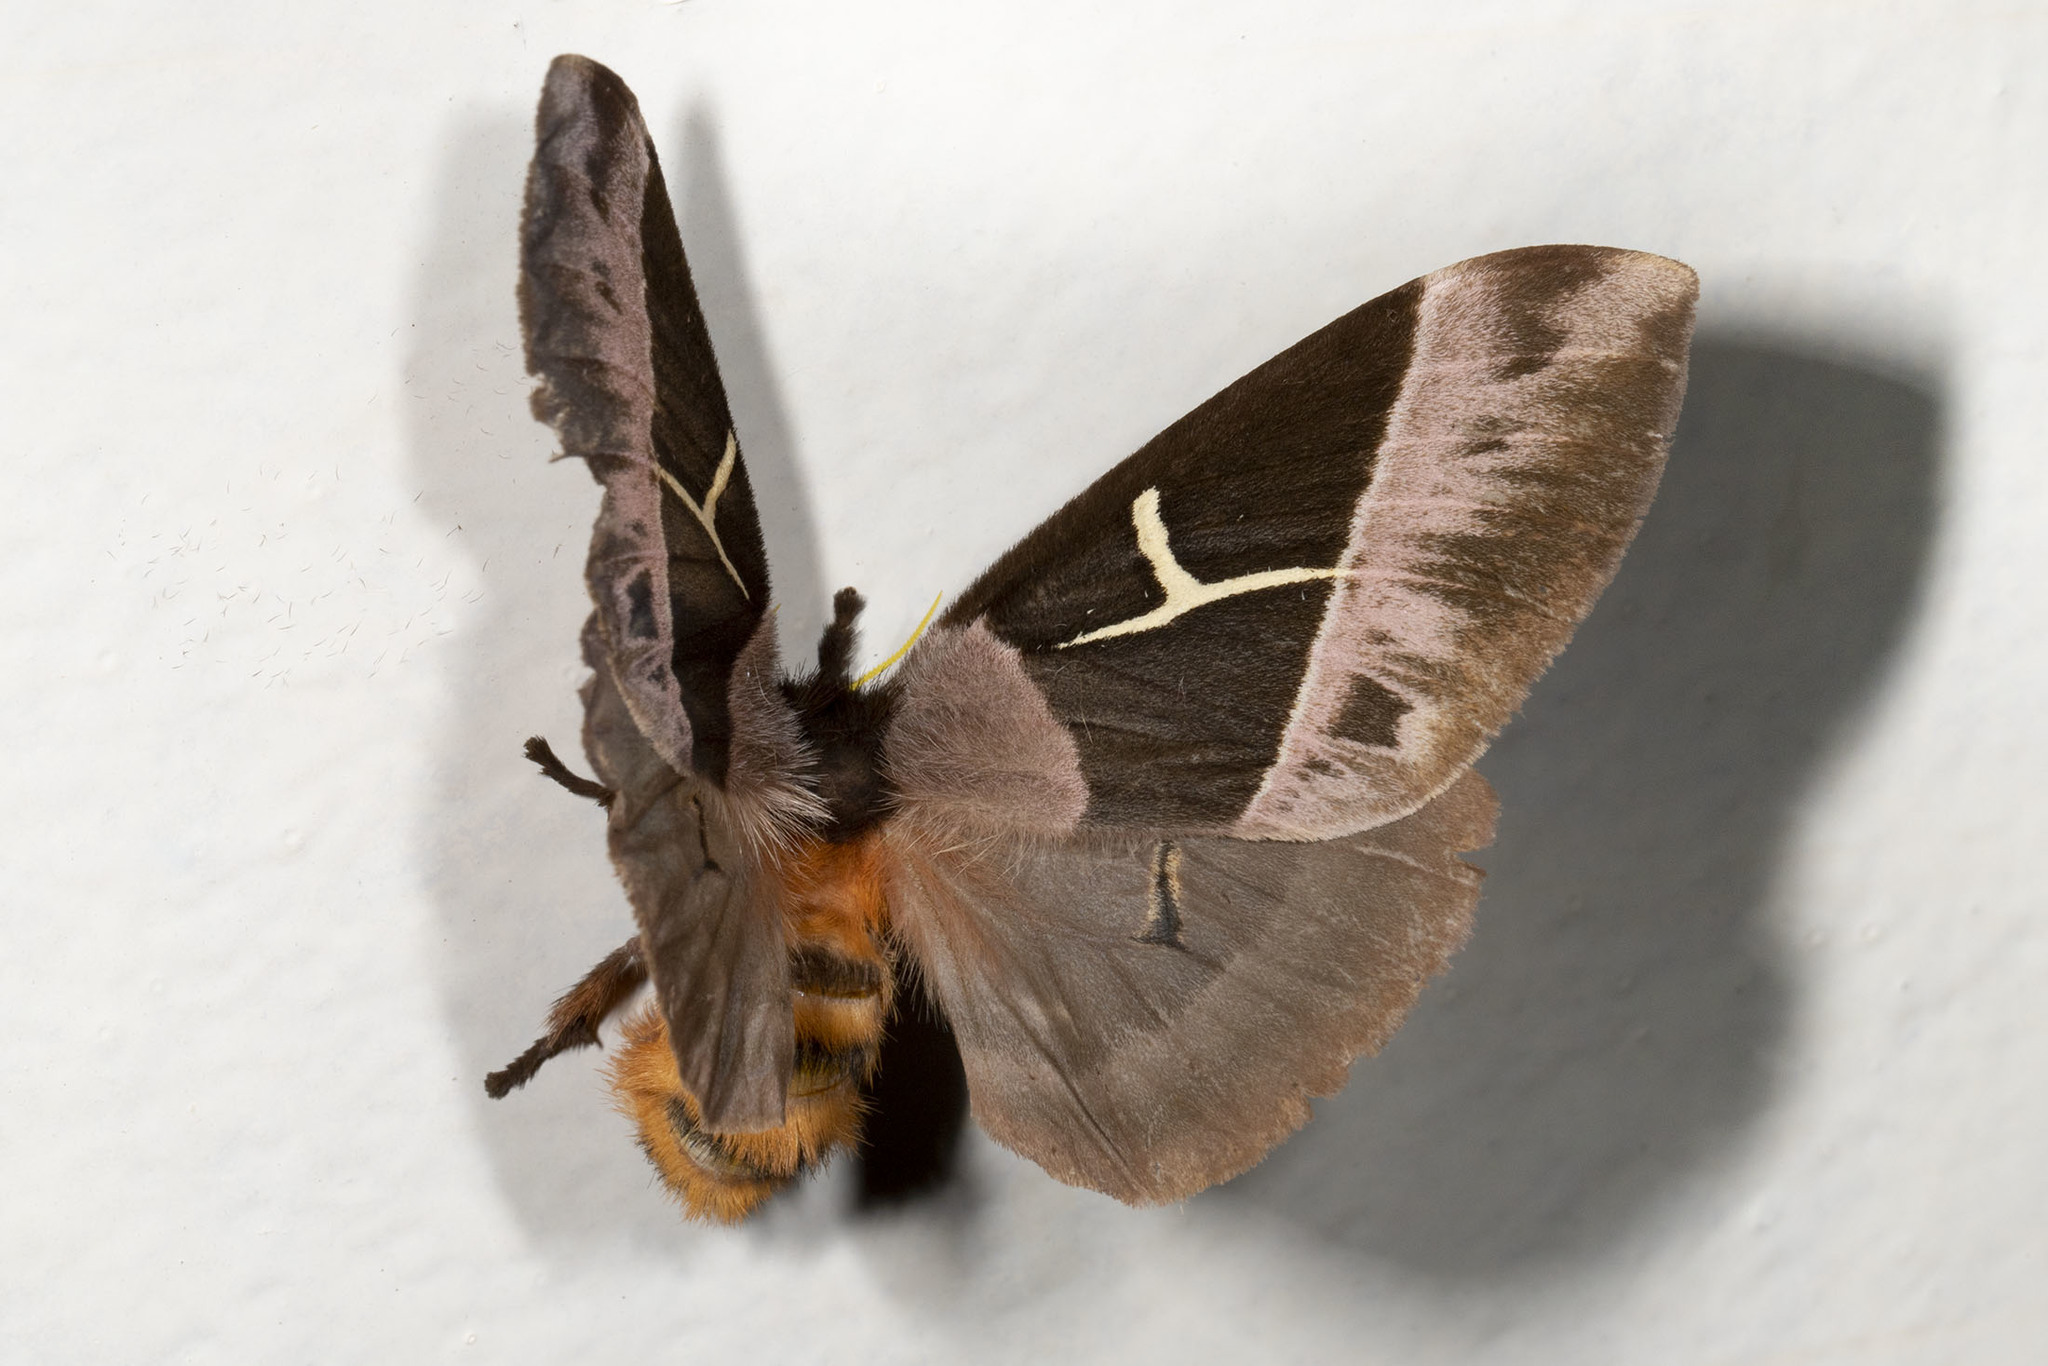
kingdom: Animalia
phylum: Arthropoda
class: Insecta
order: Lepidoptera
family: Saturniidae
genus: Dirphia
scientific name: Dirphia brevifurca
